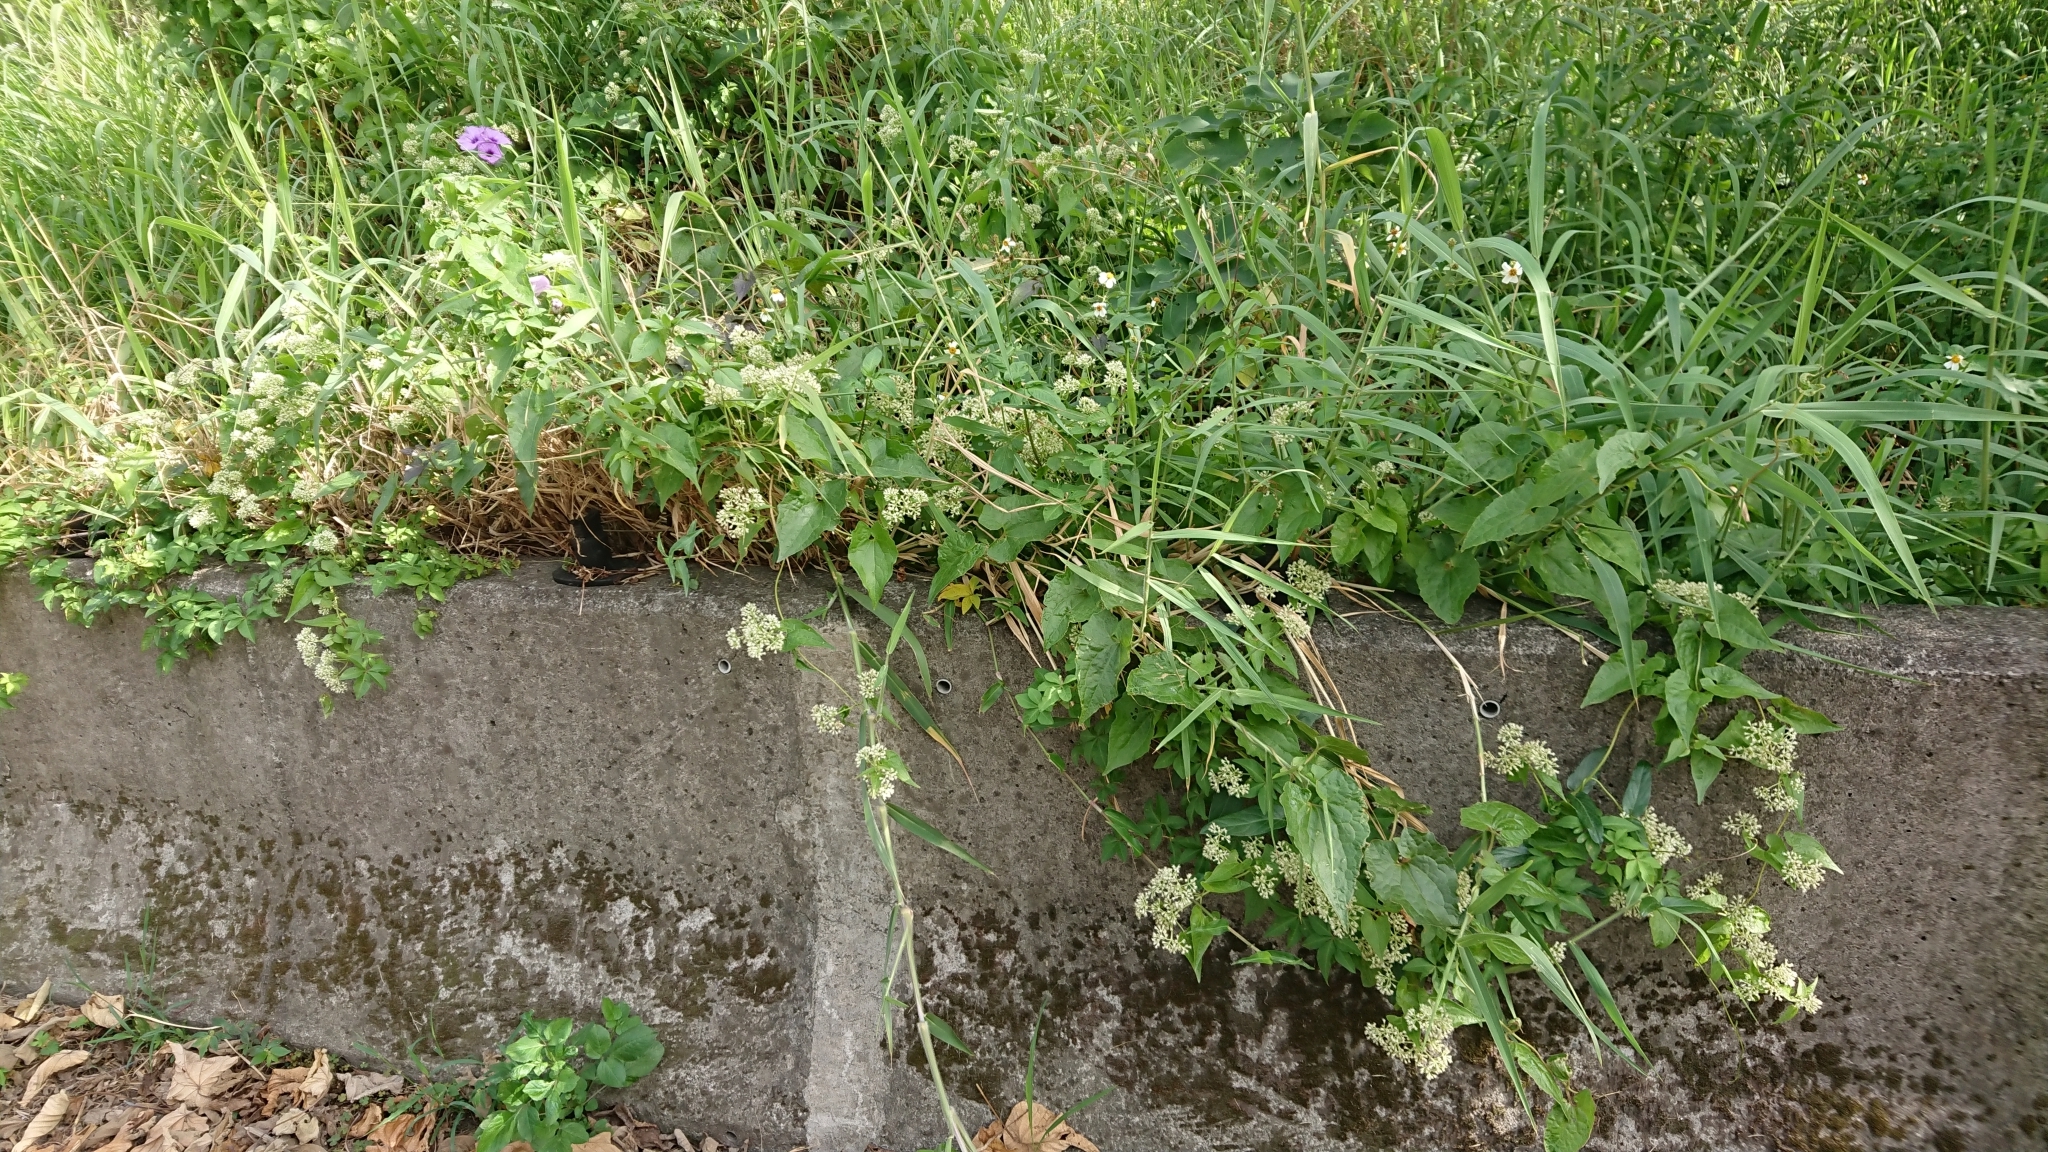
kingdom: Plantae
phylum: Tracheophyta
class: Magnoliopsida
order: Asterales
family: Asteraceae
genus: Mikania
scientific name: Mikania micrantha
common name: Mile-a-minute
